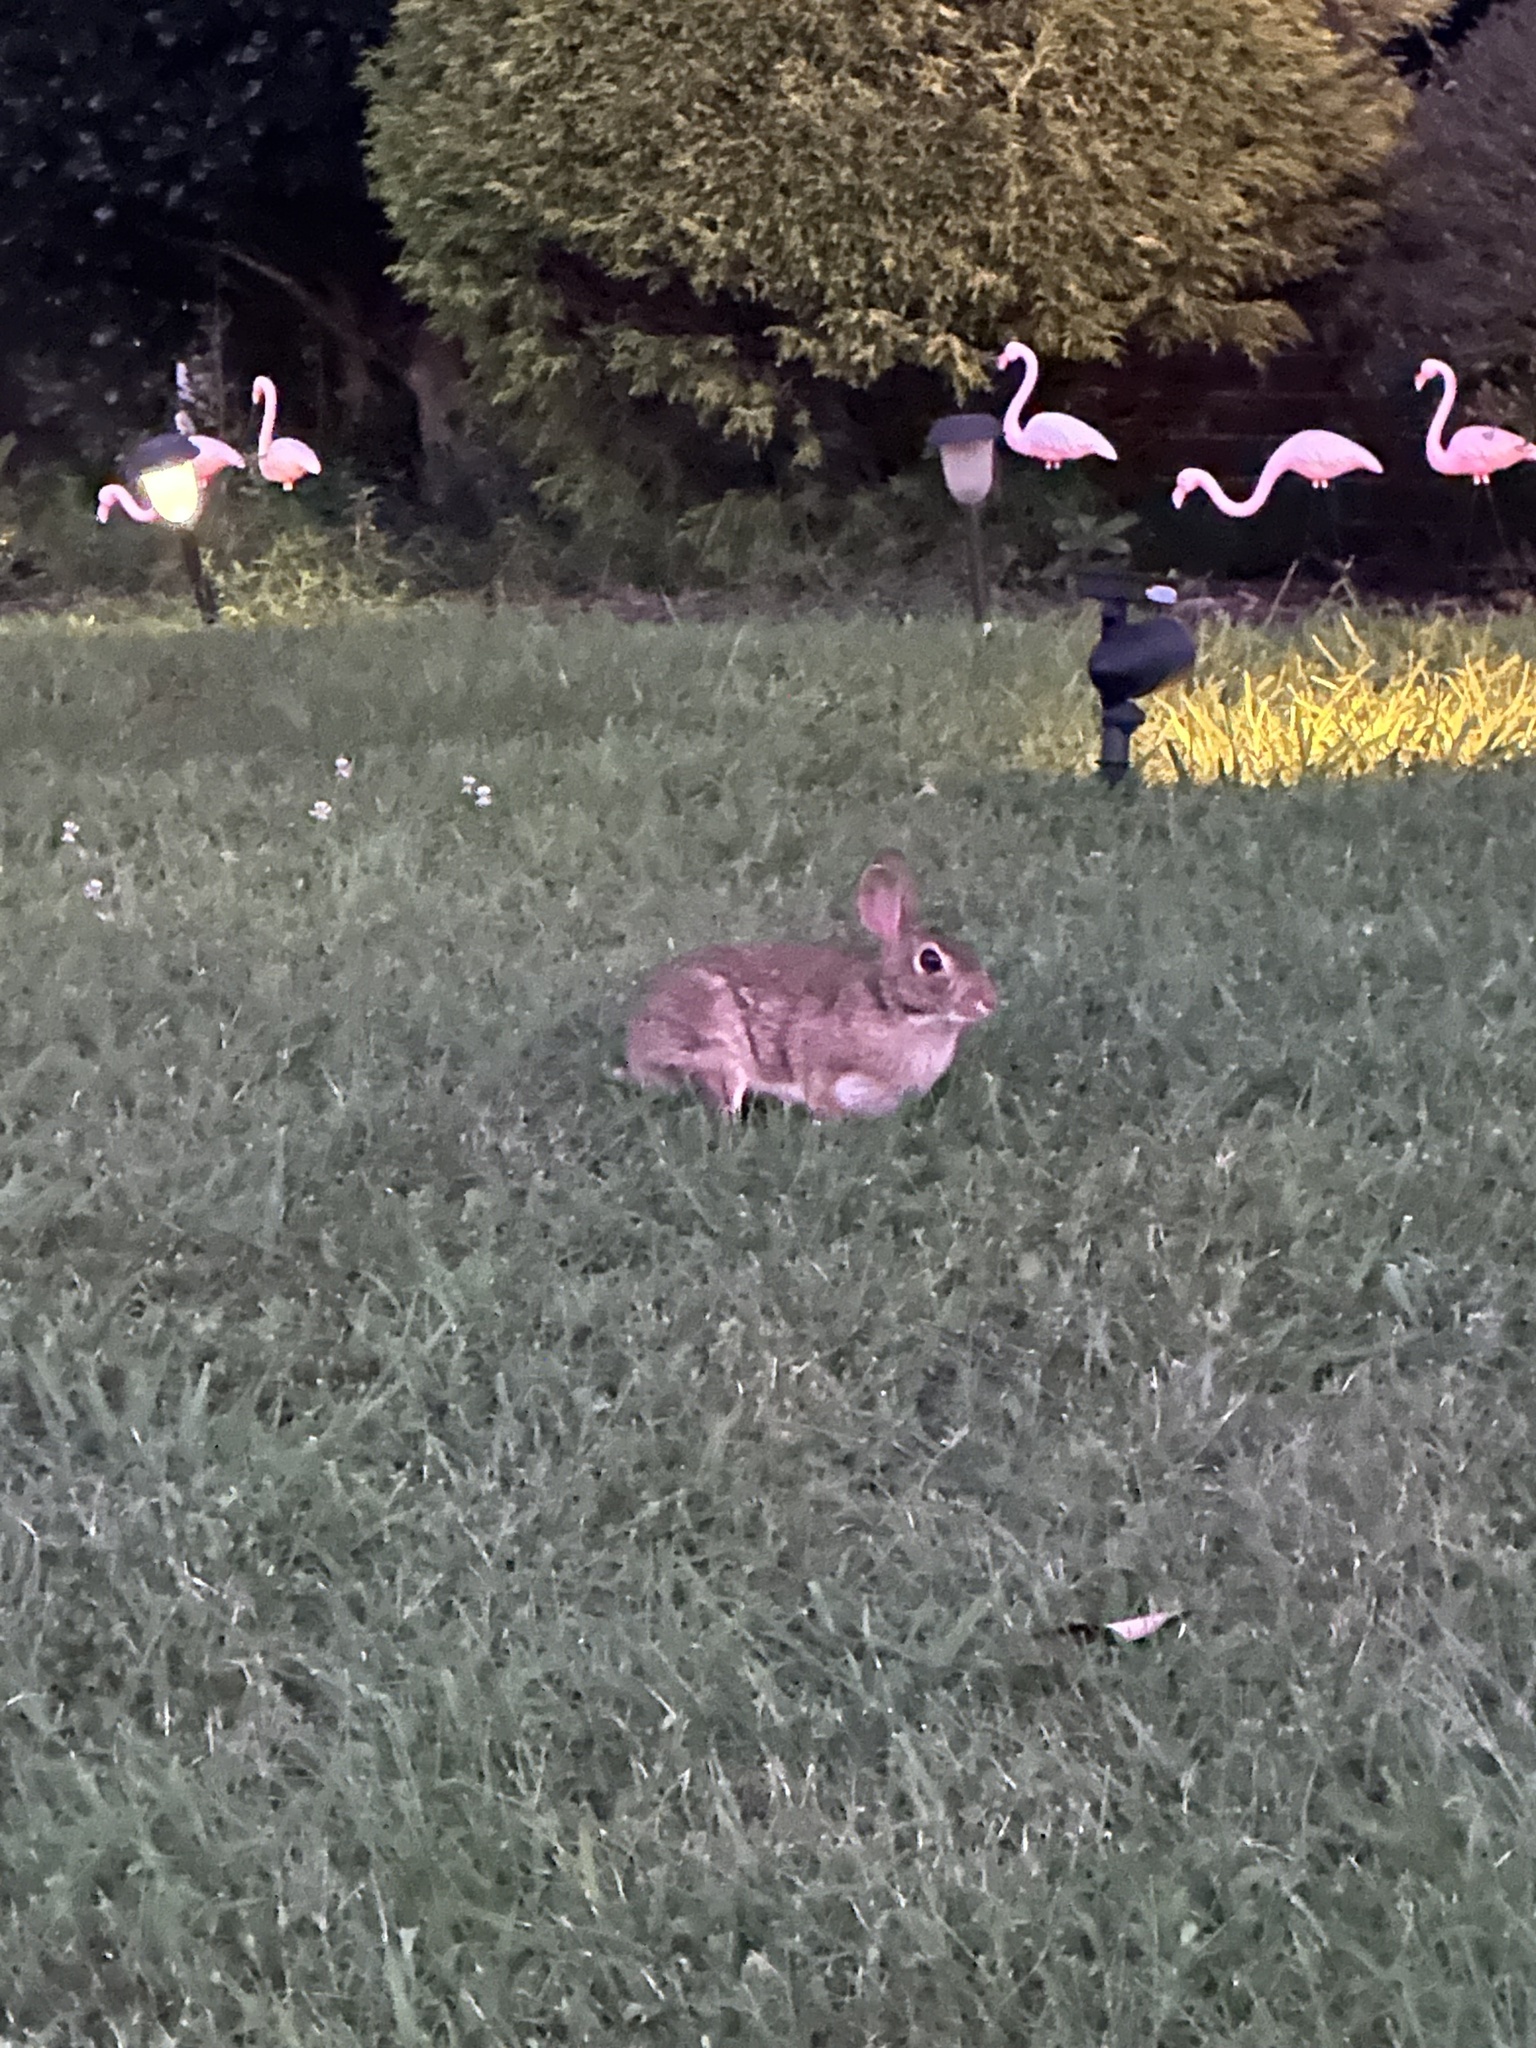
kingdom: Animalia
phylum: Chordata
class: Mammalia
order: Lagomorpha
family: Leporidae
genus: Sylvilagus
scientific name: Sylvilagus floridanus
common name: Eastern cottontail
